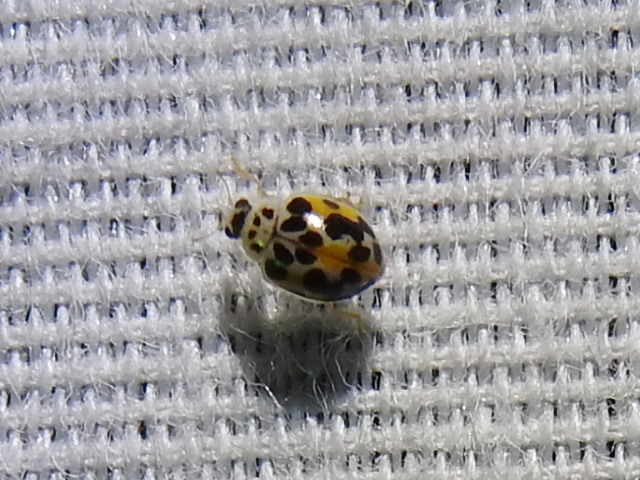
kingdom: Animalia
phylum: Arthropoda
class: Insecta
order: Coleoptera
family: Coccinellidae
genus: Psyllobora
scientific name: Psyllobora vigintimaculata
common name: Ladybird beetle
